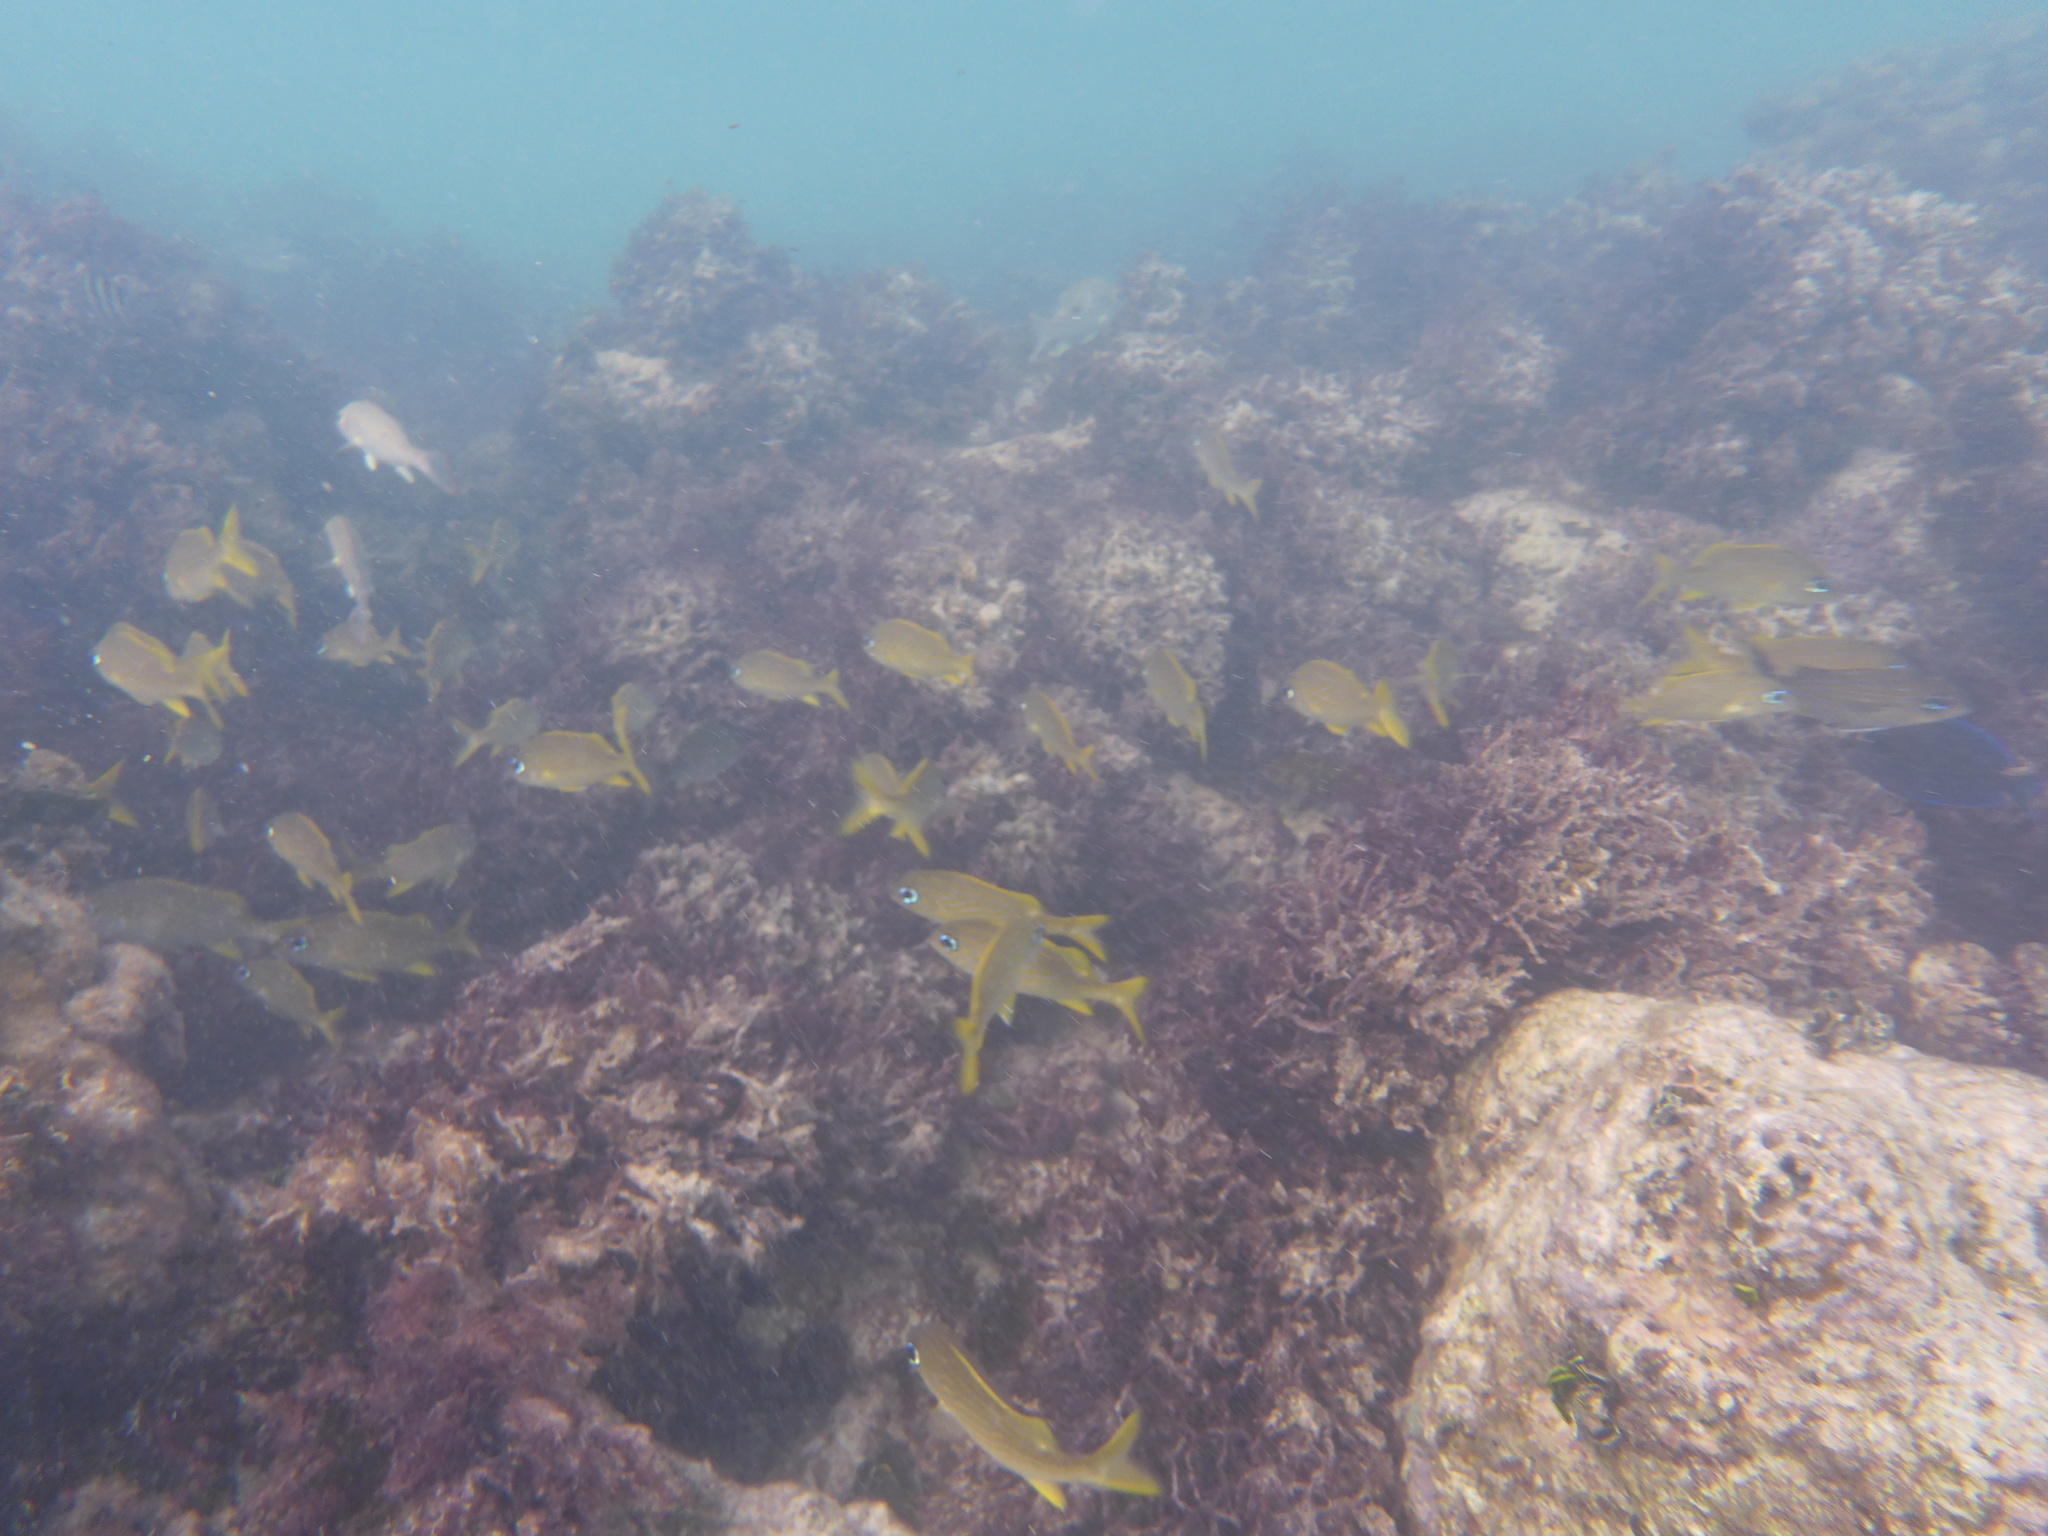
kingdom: Animalia
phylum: Chordata
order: Perciformes
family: Haemulidae
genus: Haemulon
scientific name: Haemulon flavolineatum
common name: French grunt
